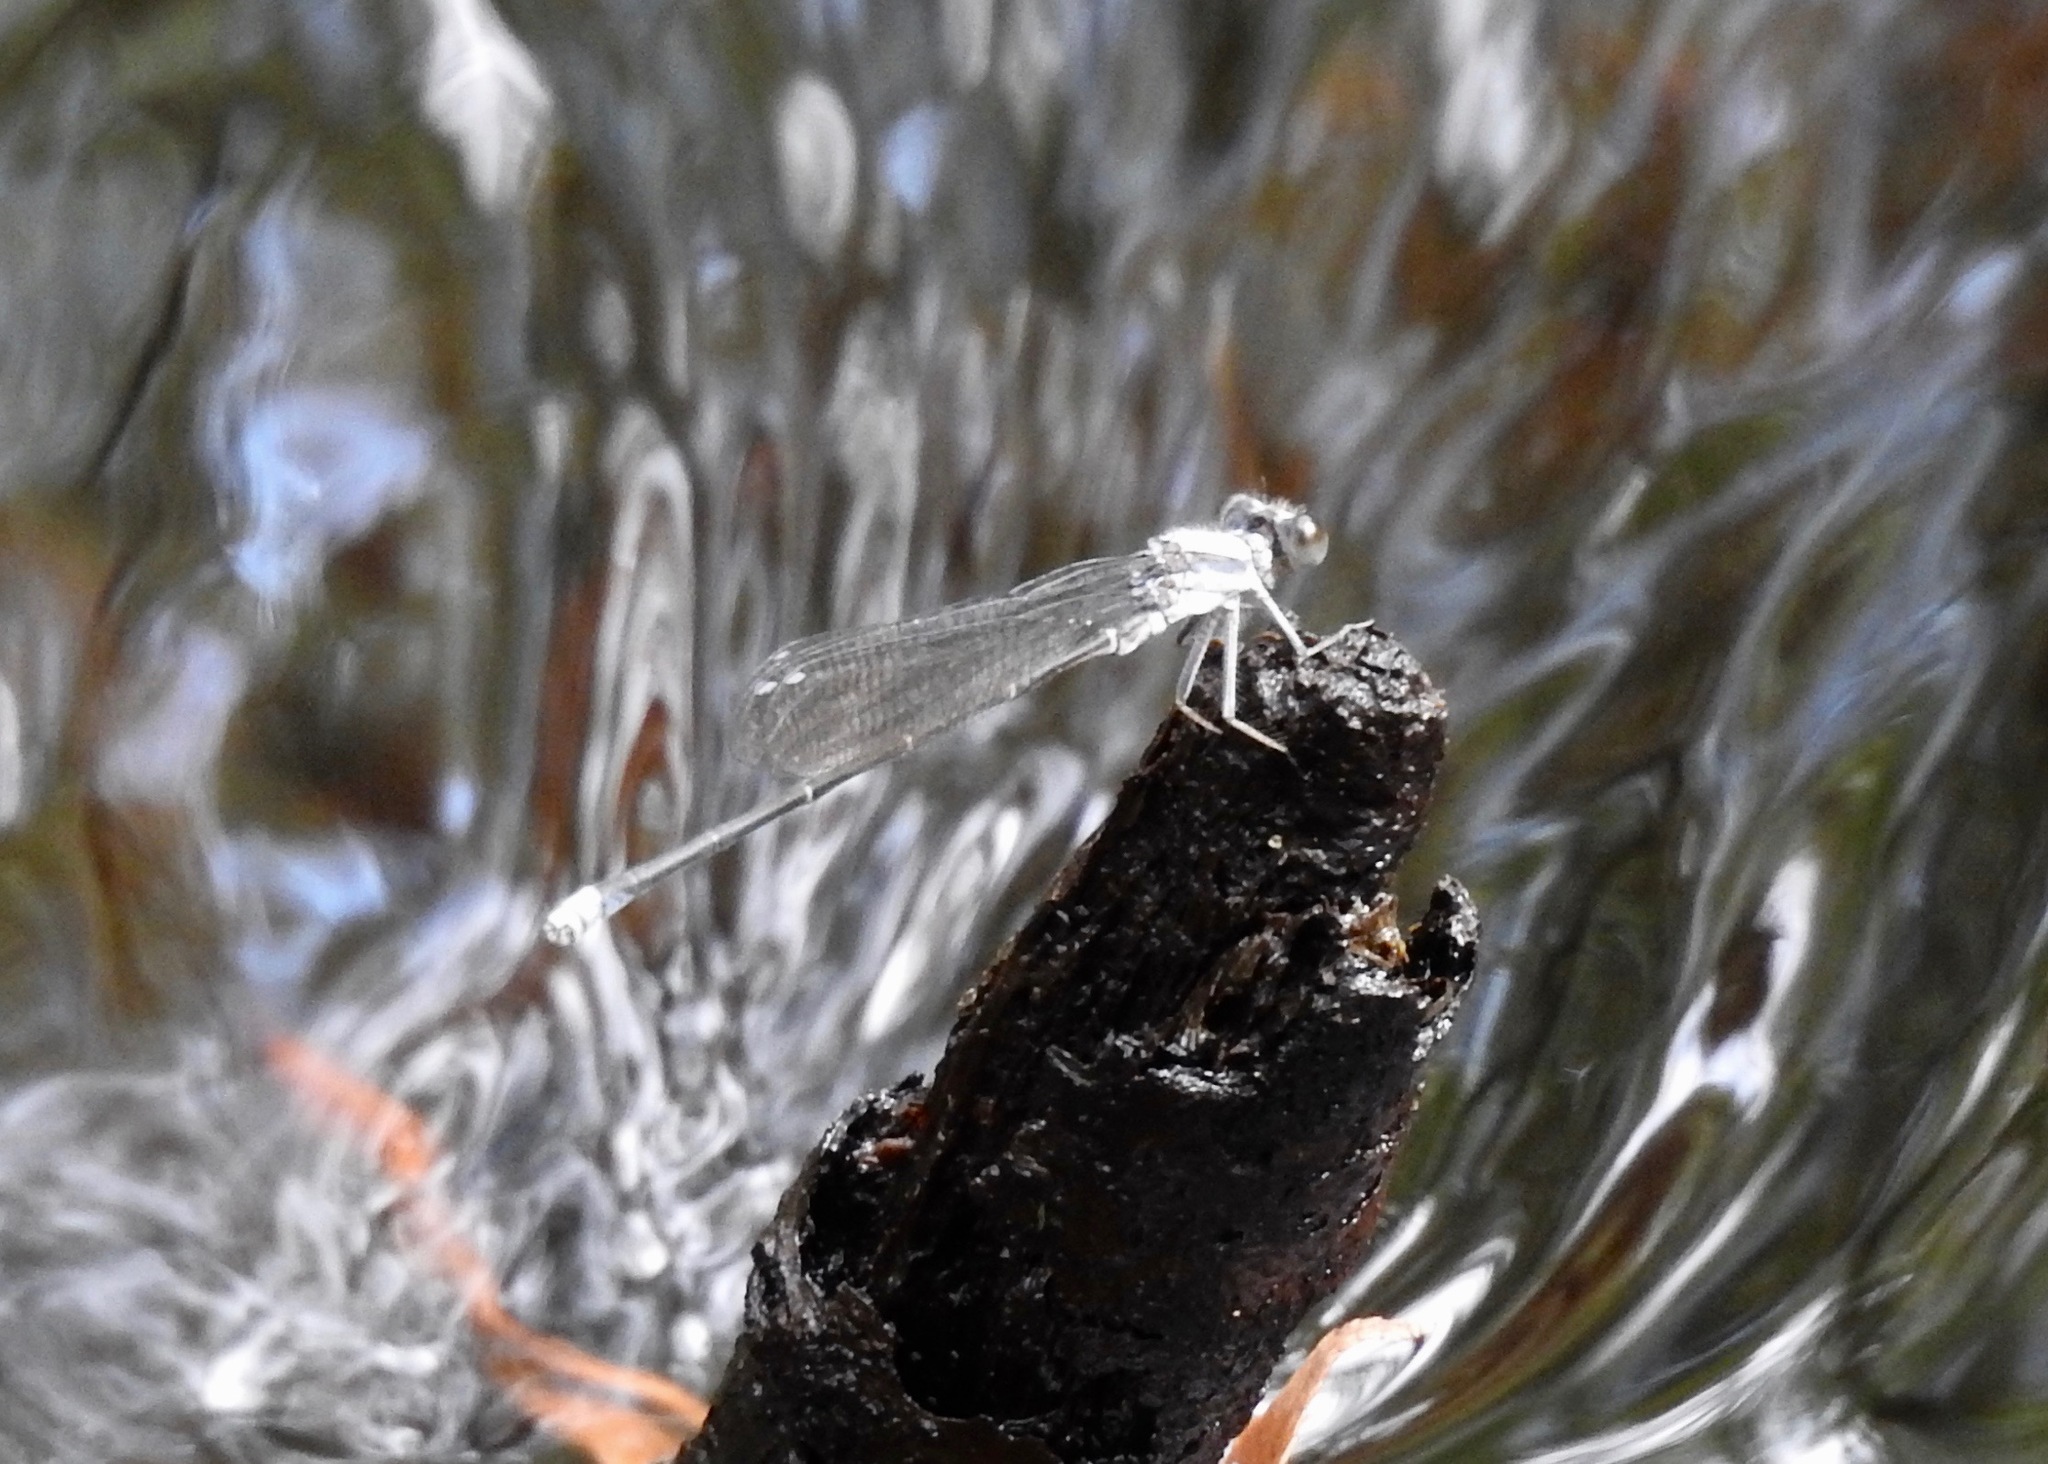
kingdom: Animalia
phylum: Arthropoda
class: Insecta
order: Odonata
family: Coenagrionidae
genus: Argia
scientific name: Argia moesta
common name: Powdered dancer
